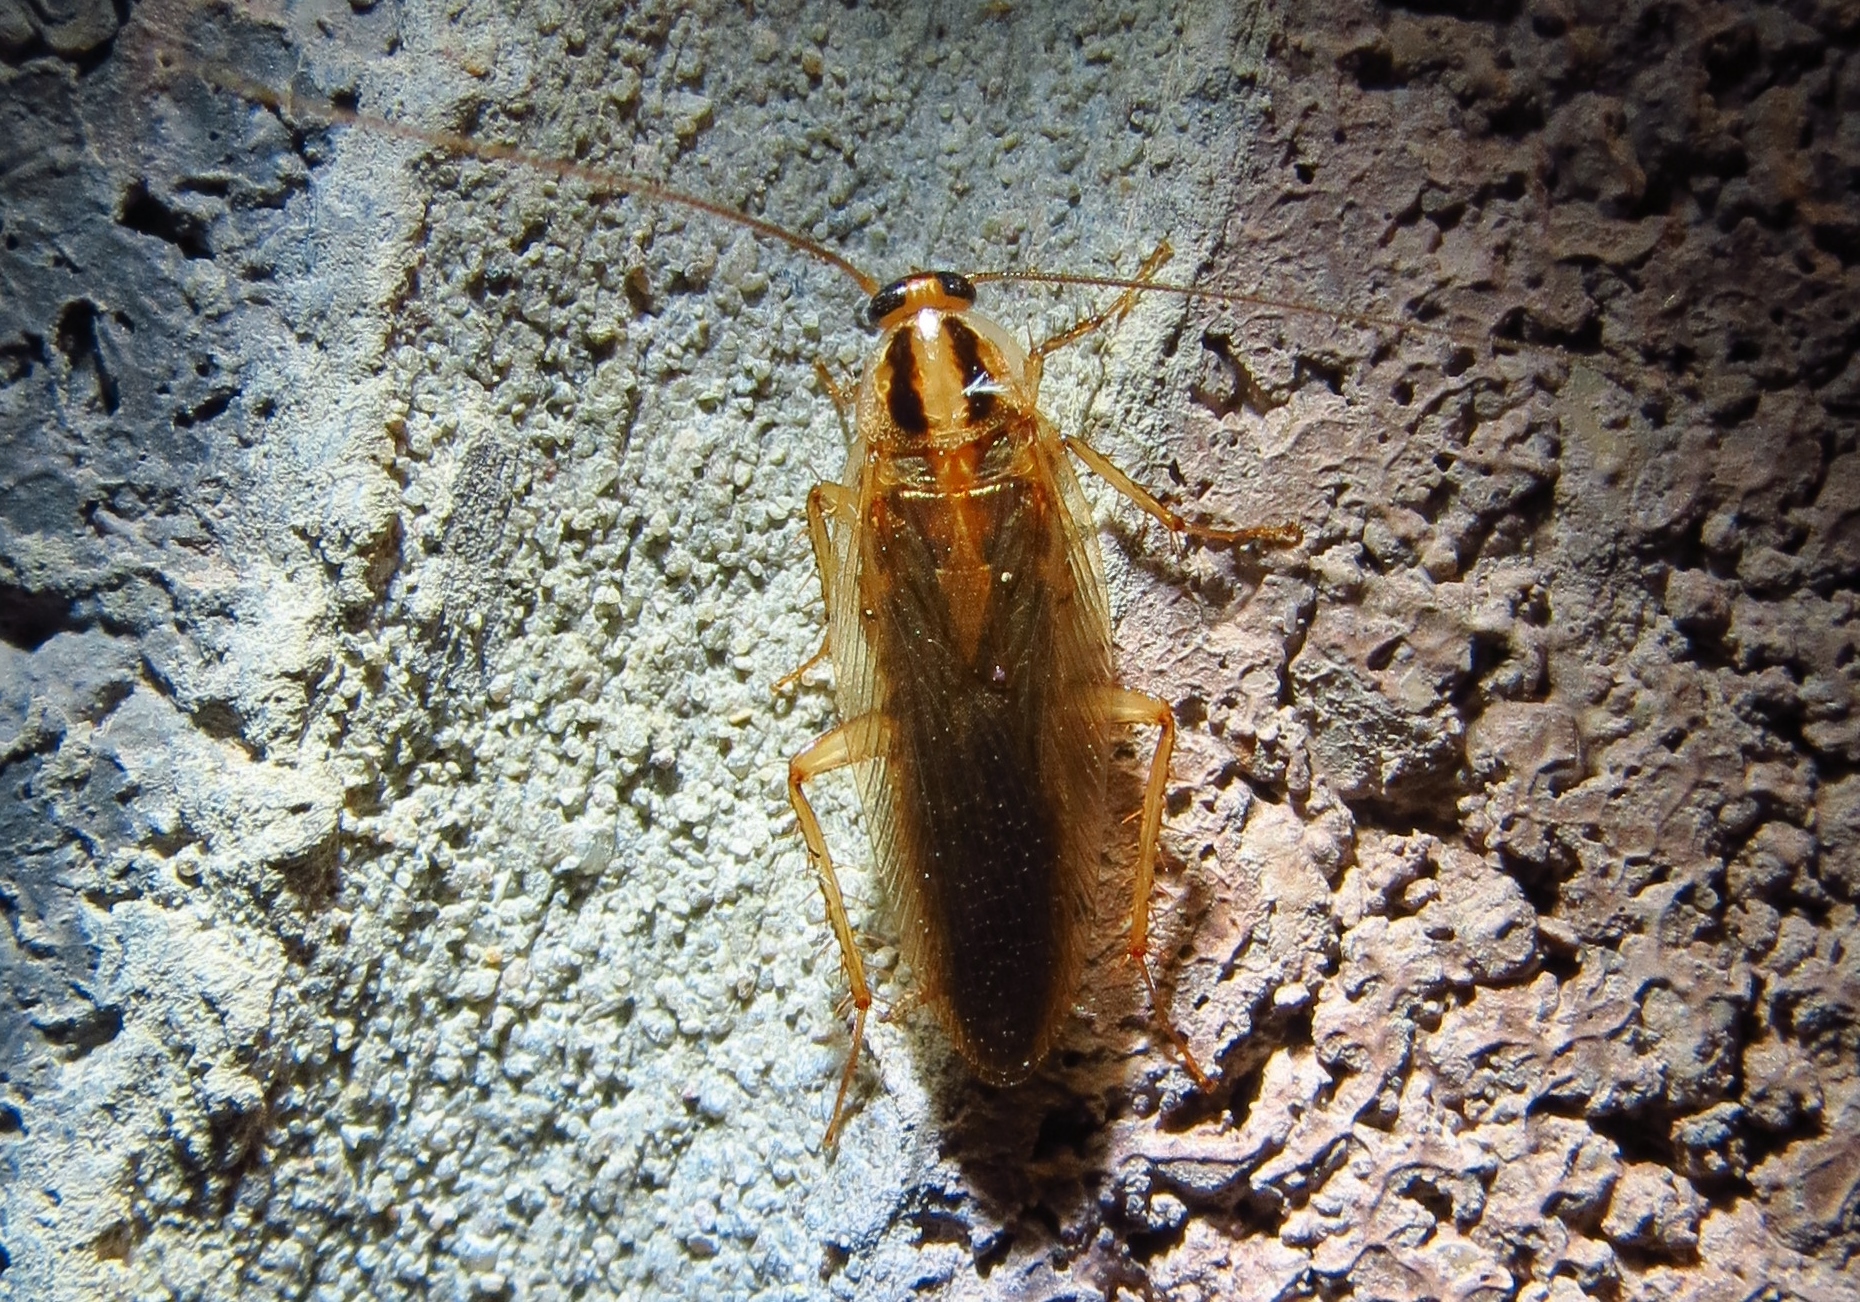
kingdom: Animalia
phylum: Arthropoda
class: Insecta
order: Blattodea
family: Ectobiidae
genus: Blattella
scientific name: Blattella asahinai
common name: Asian cockroach
